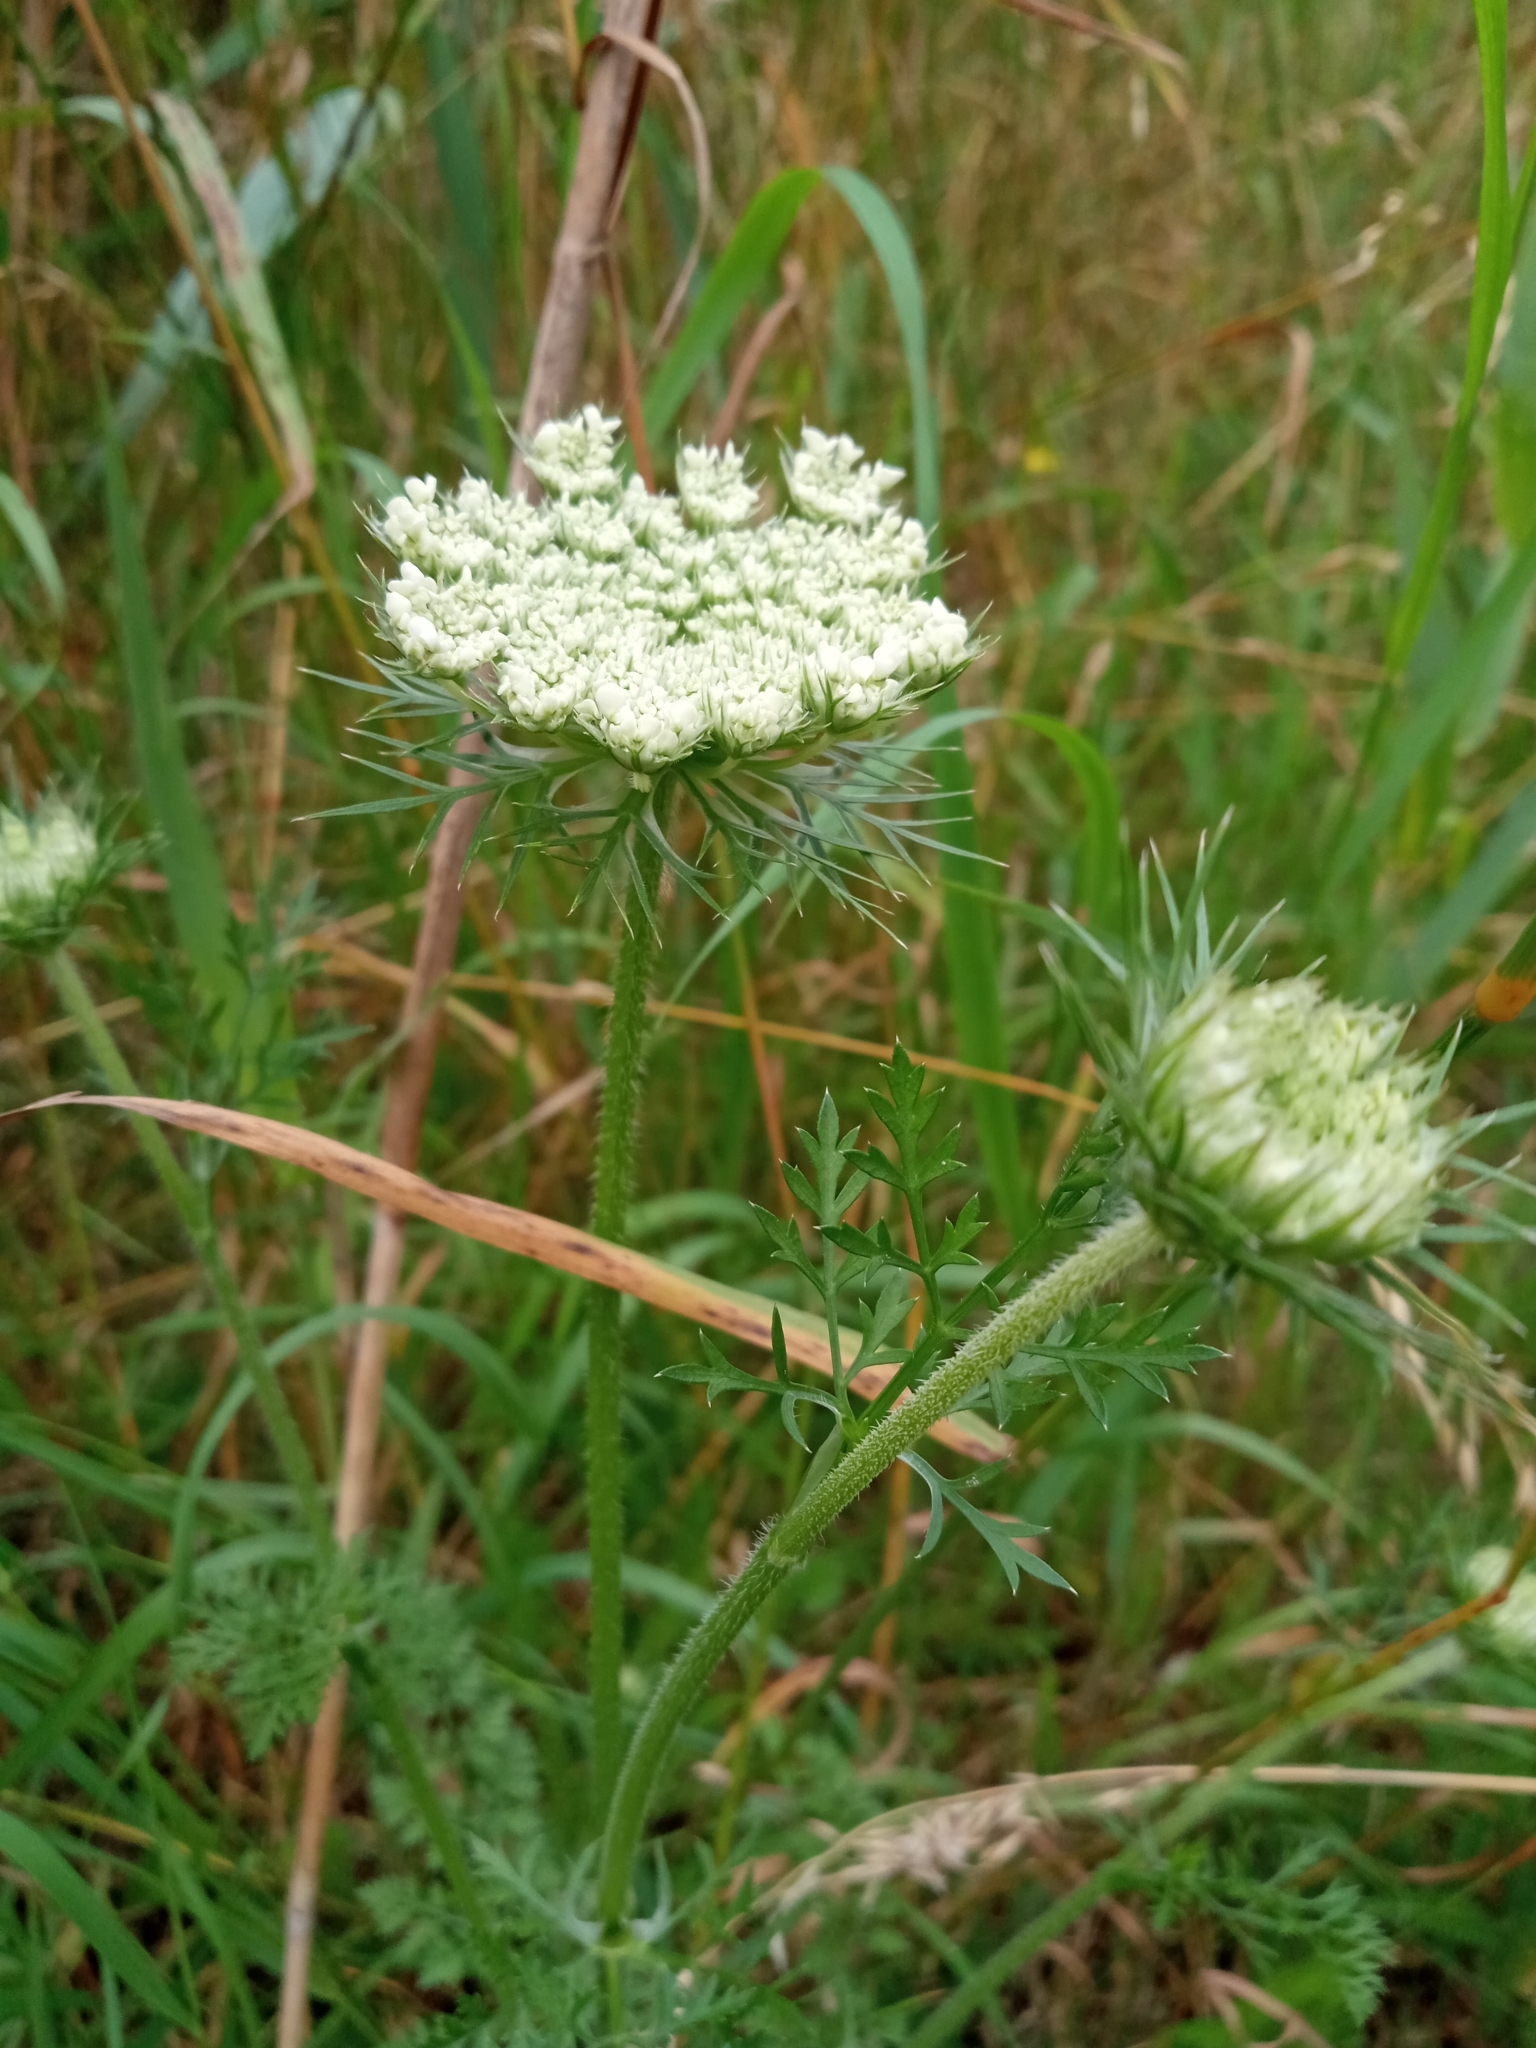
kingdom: Plantae
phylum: Tracheophyta
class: Magnoliopsida
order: Apiales
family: Apiaceae
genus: Daucus
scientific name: Daucus carota
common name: Wild carrot
